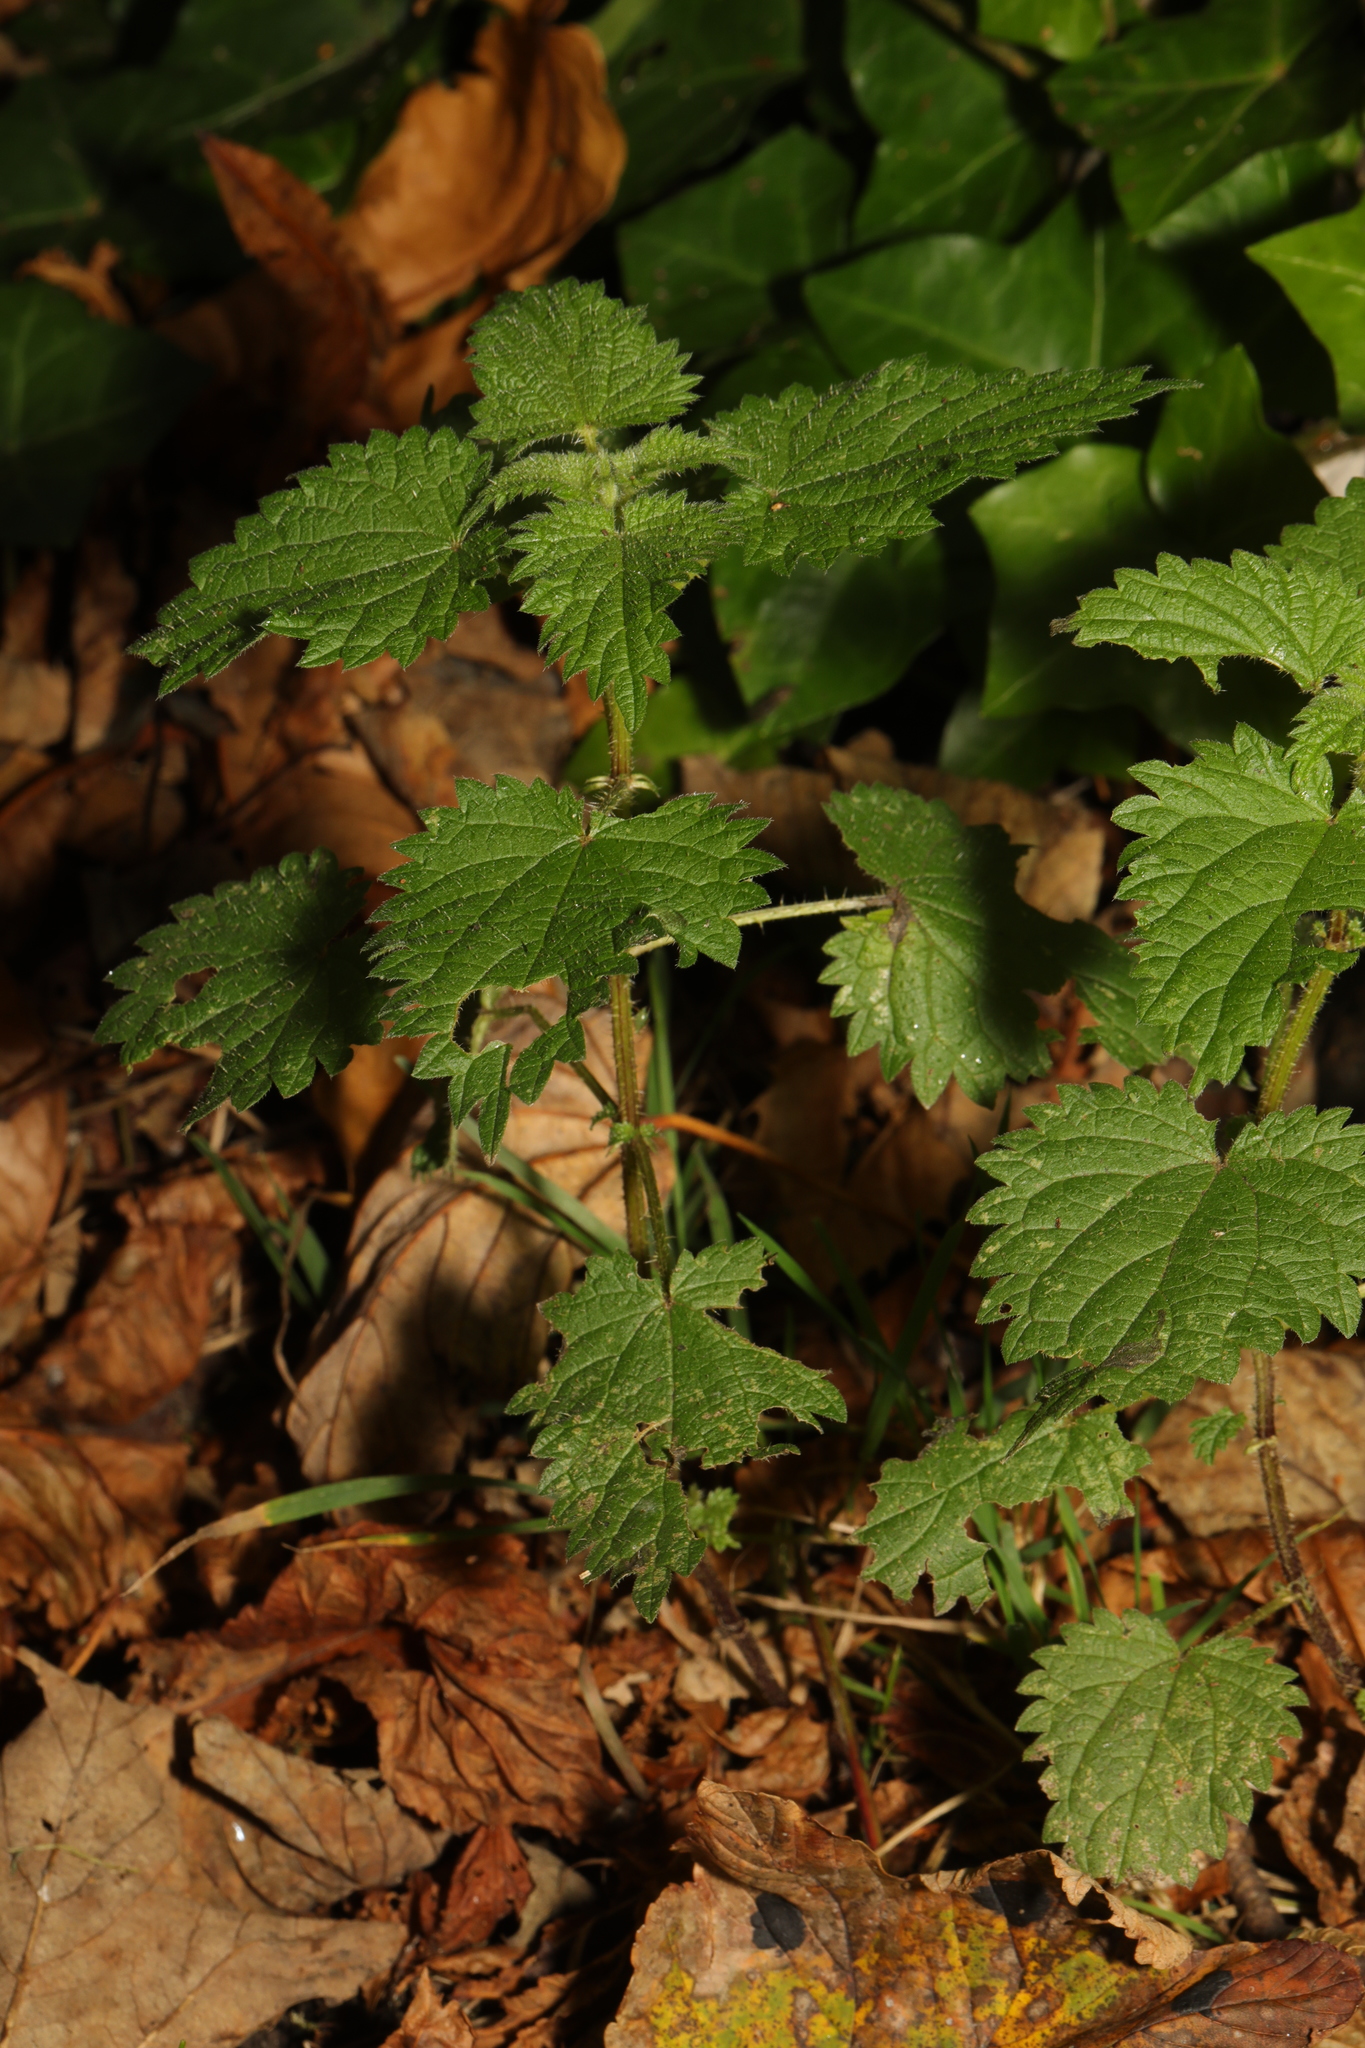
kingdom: Plantae
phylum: Tracheophyta
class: Magnoliopsida
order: Rosales
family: Urticaceae
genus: Urtica
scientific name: Urtica dioica
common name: Common nettle
